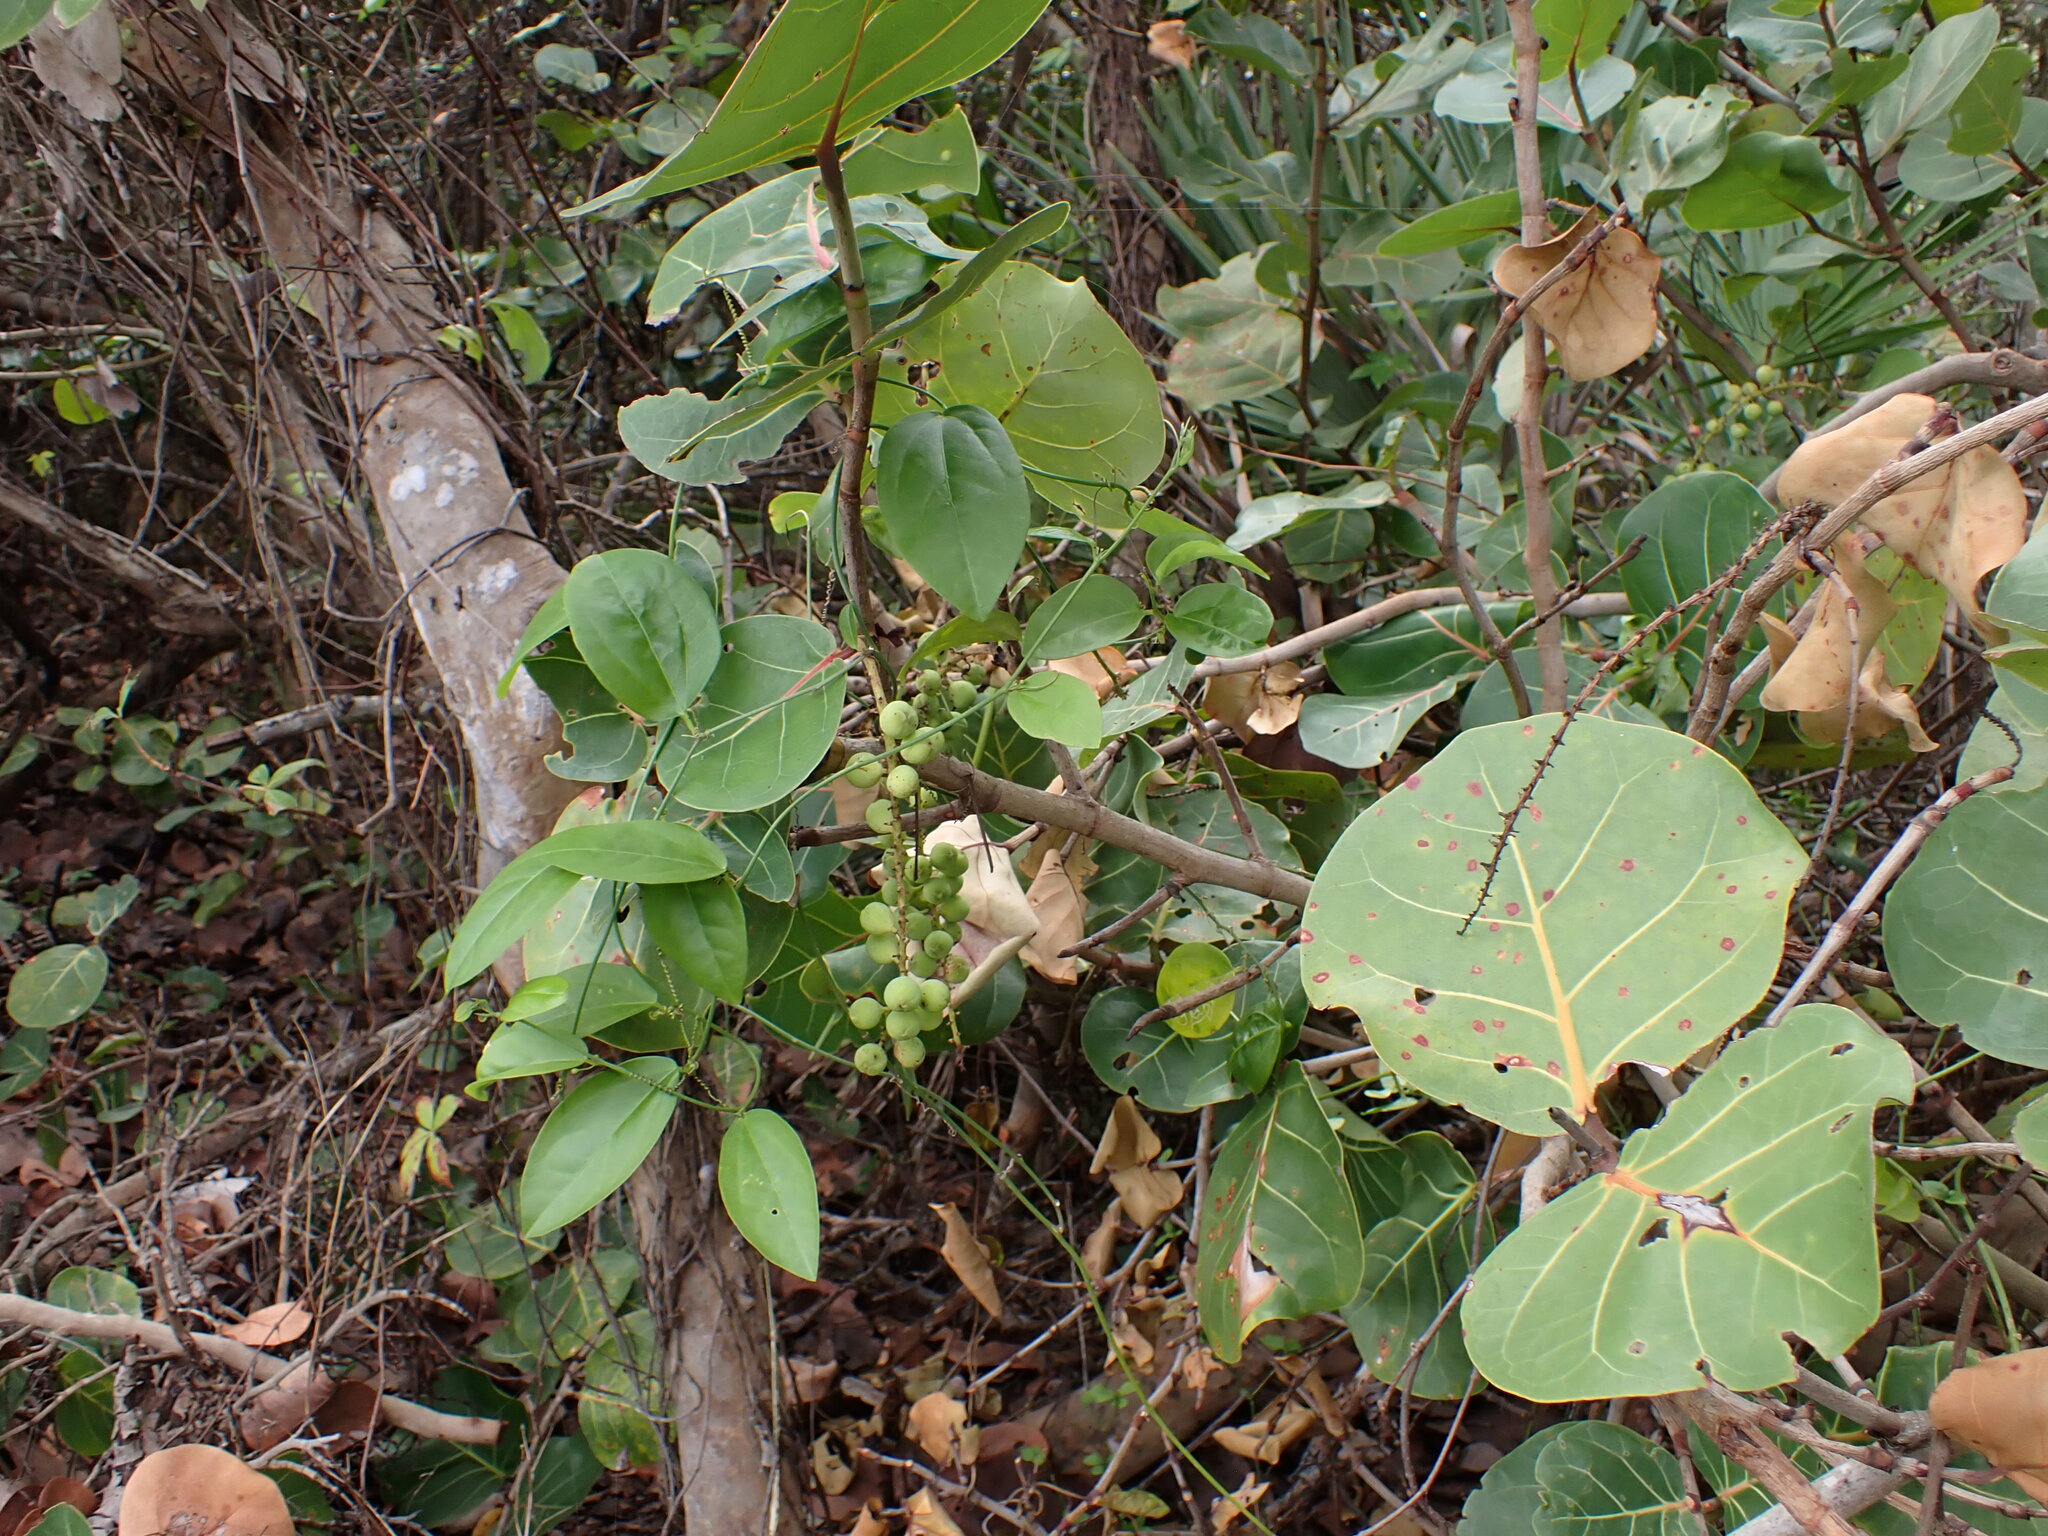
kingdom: Plantae
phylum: Tracheophyta
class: Magnoliopsida
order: Caryophyllales
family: Polygonaceae
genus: Coccoloba
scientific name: Coccoloba uvifera
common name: Seagrape
